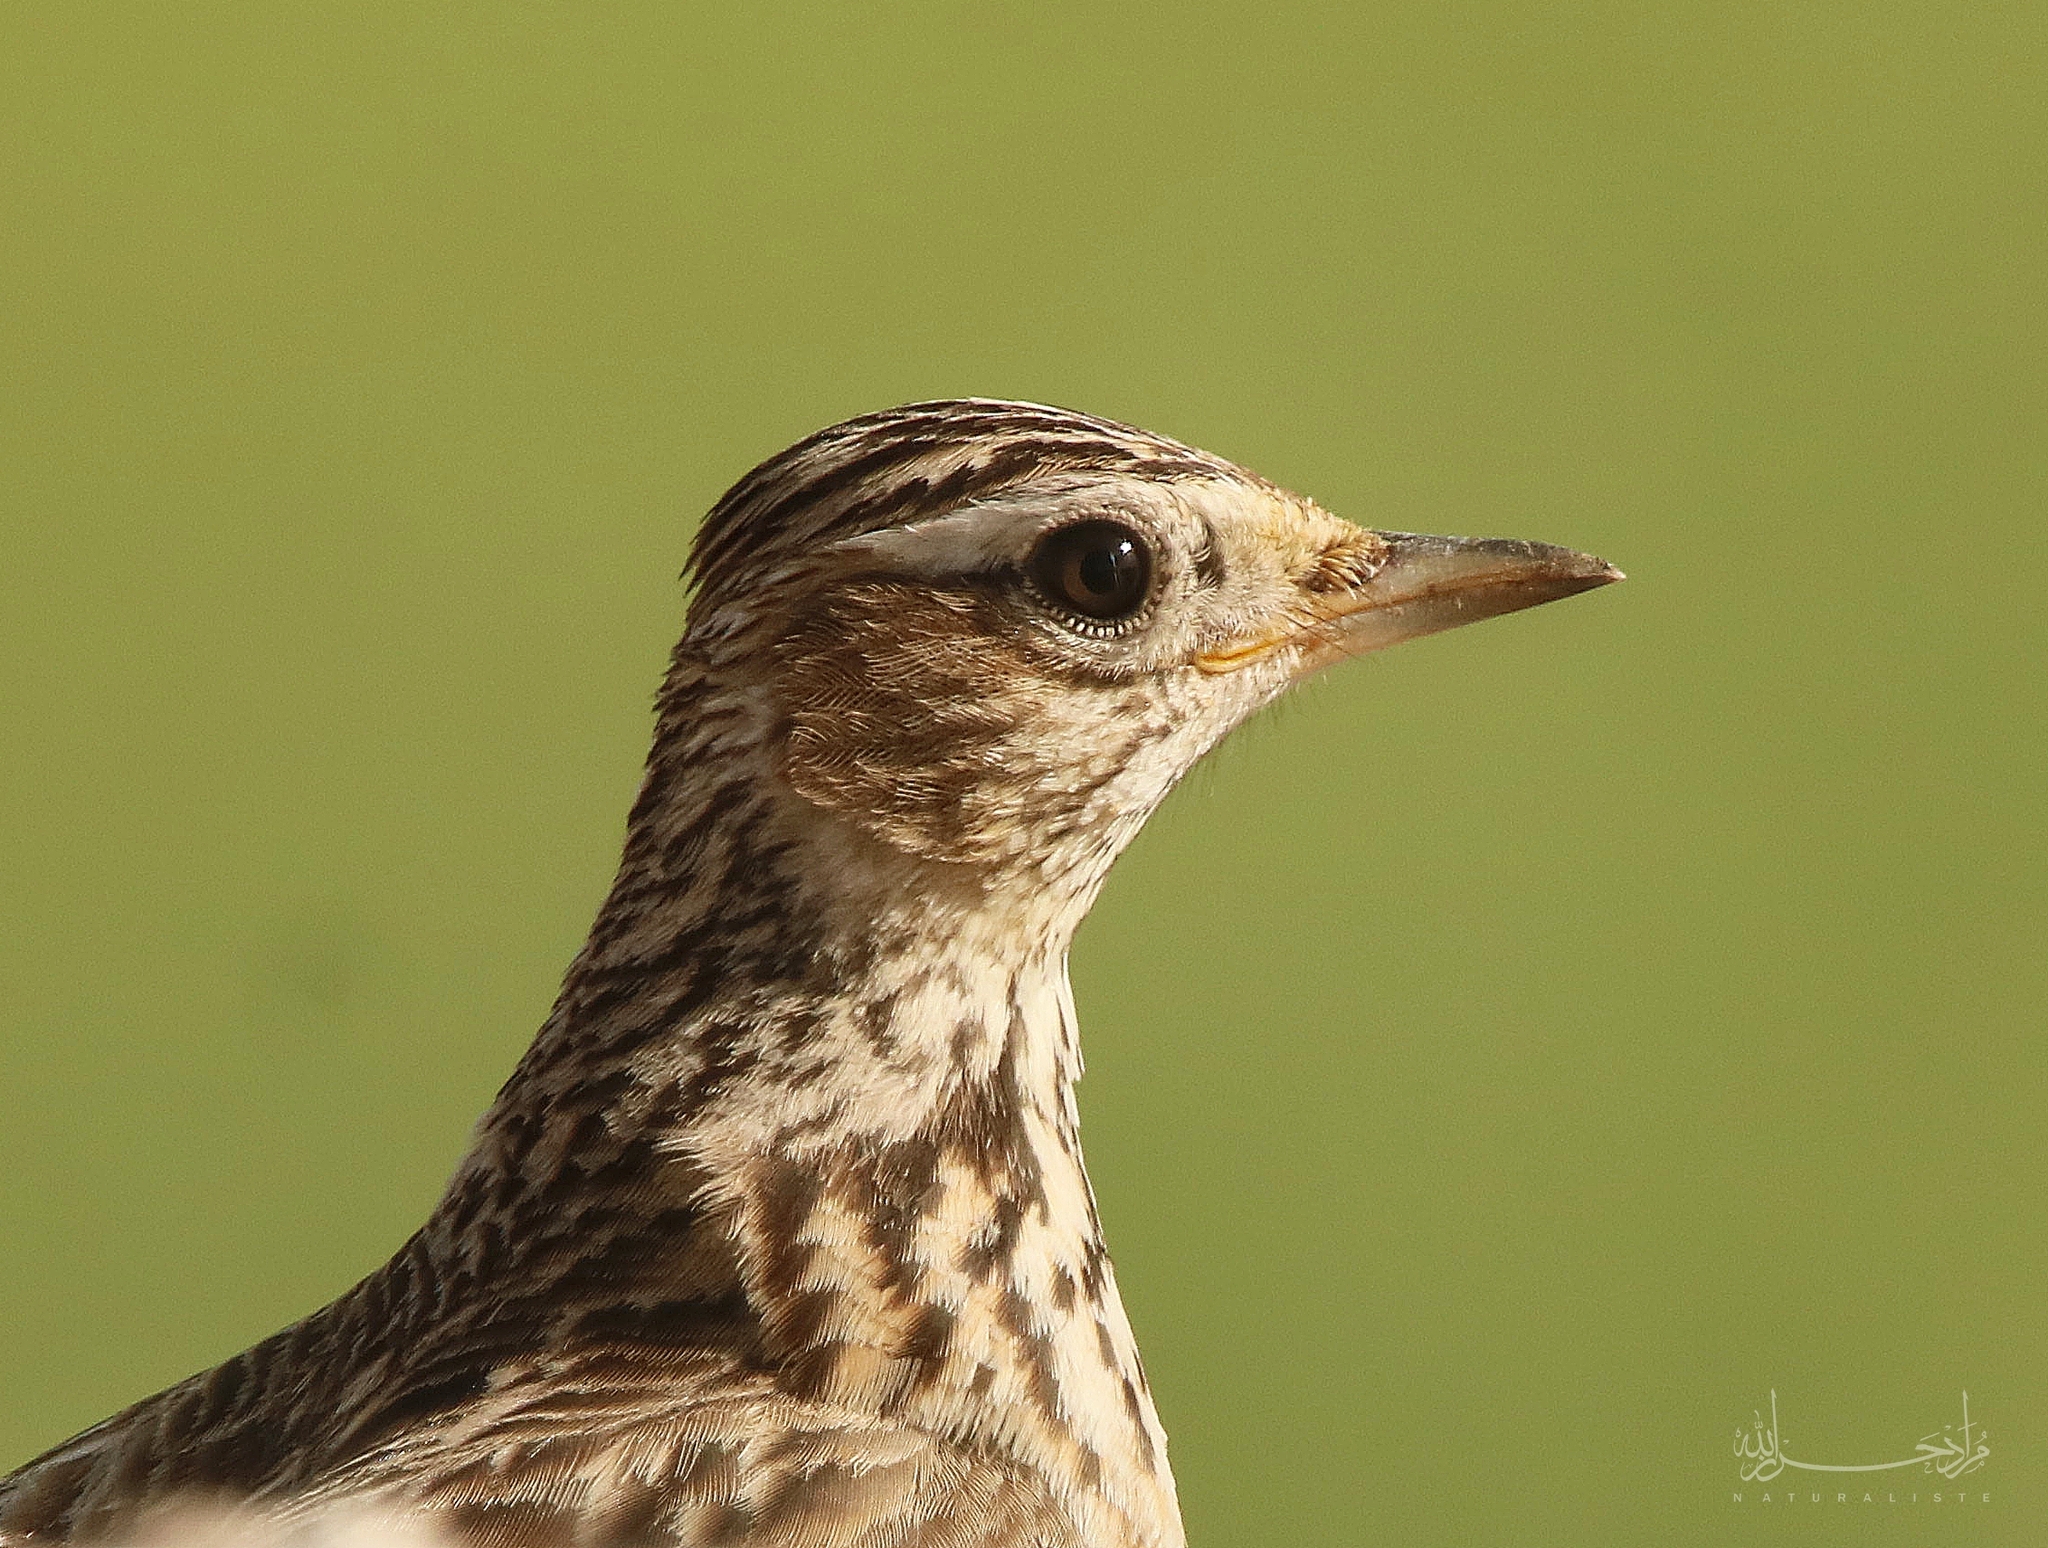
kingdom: Animalia
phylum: Chordata
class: Aves
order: Passeriformes
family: Alaudidae
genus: Alauda
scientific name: Alauda arvensis
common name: Eurasian skylark
